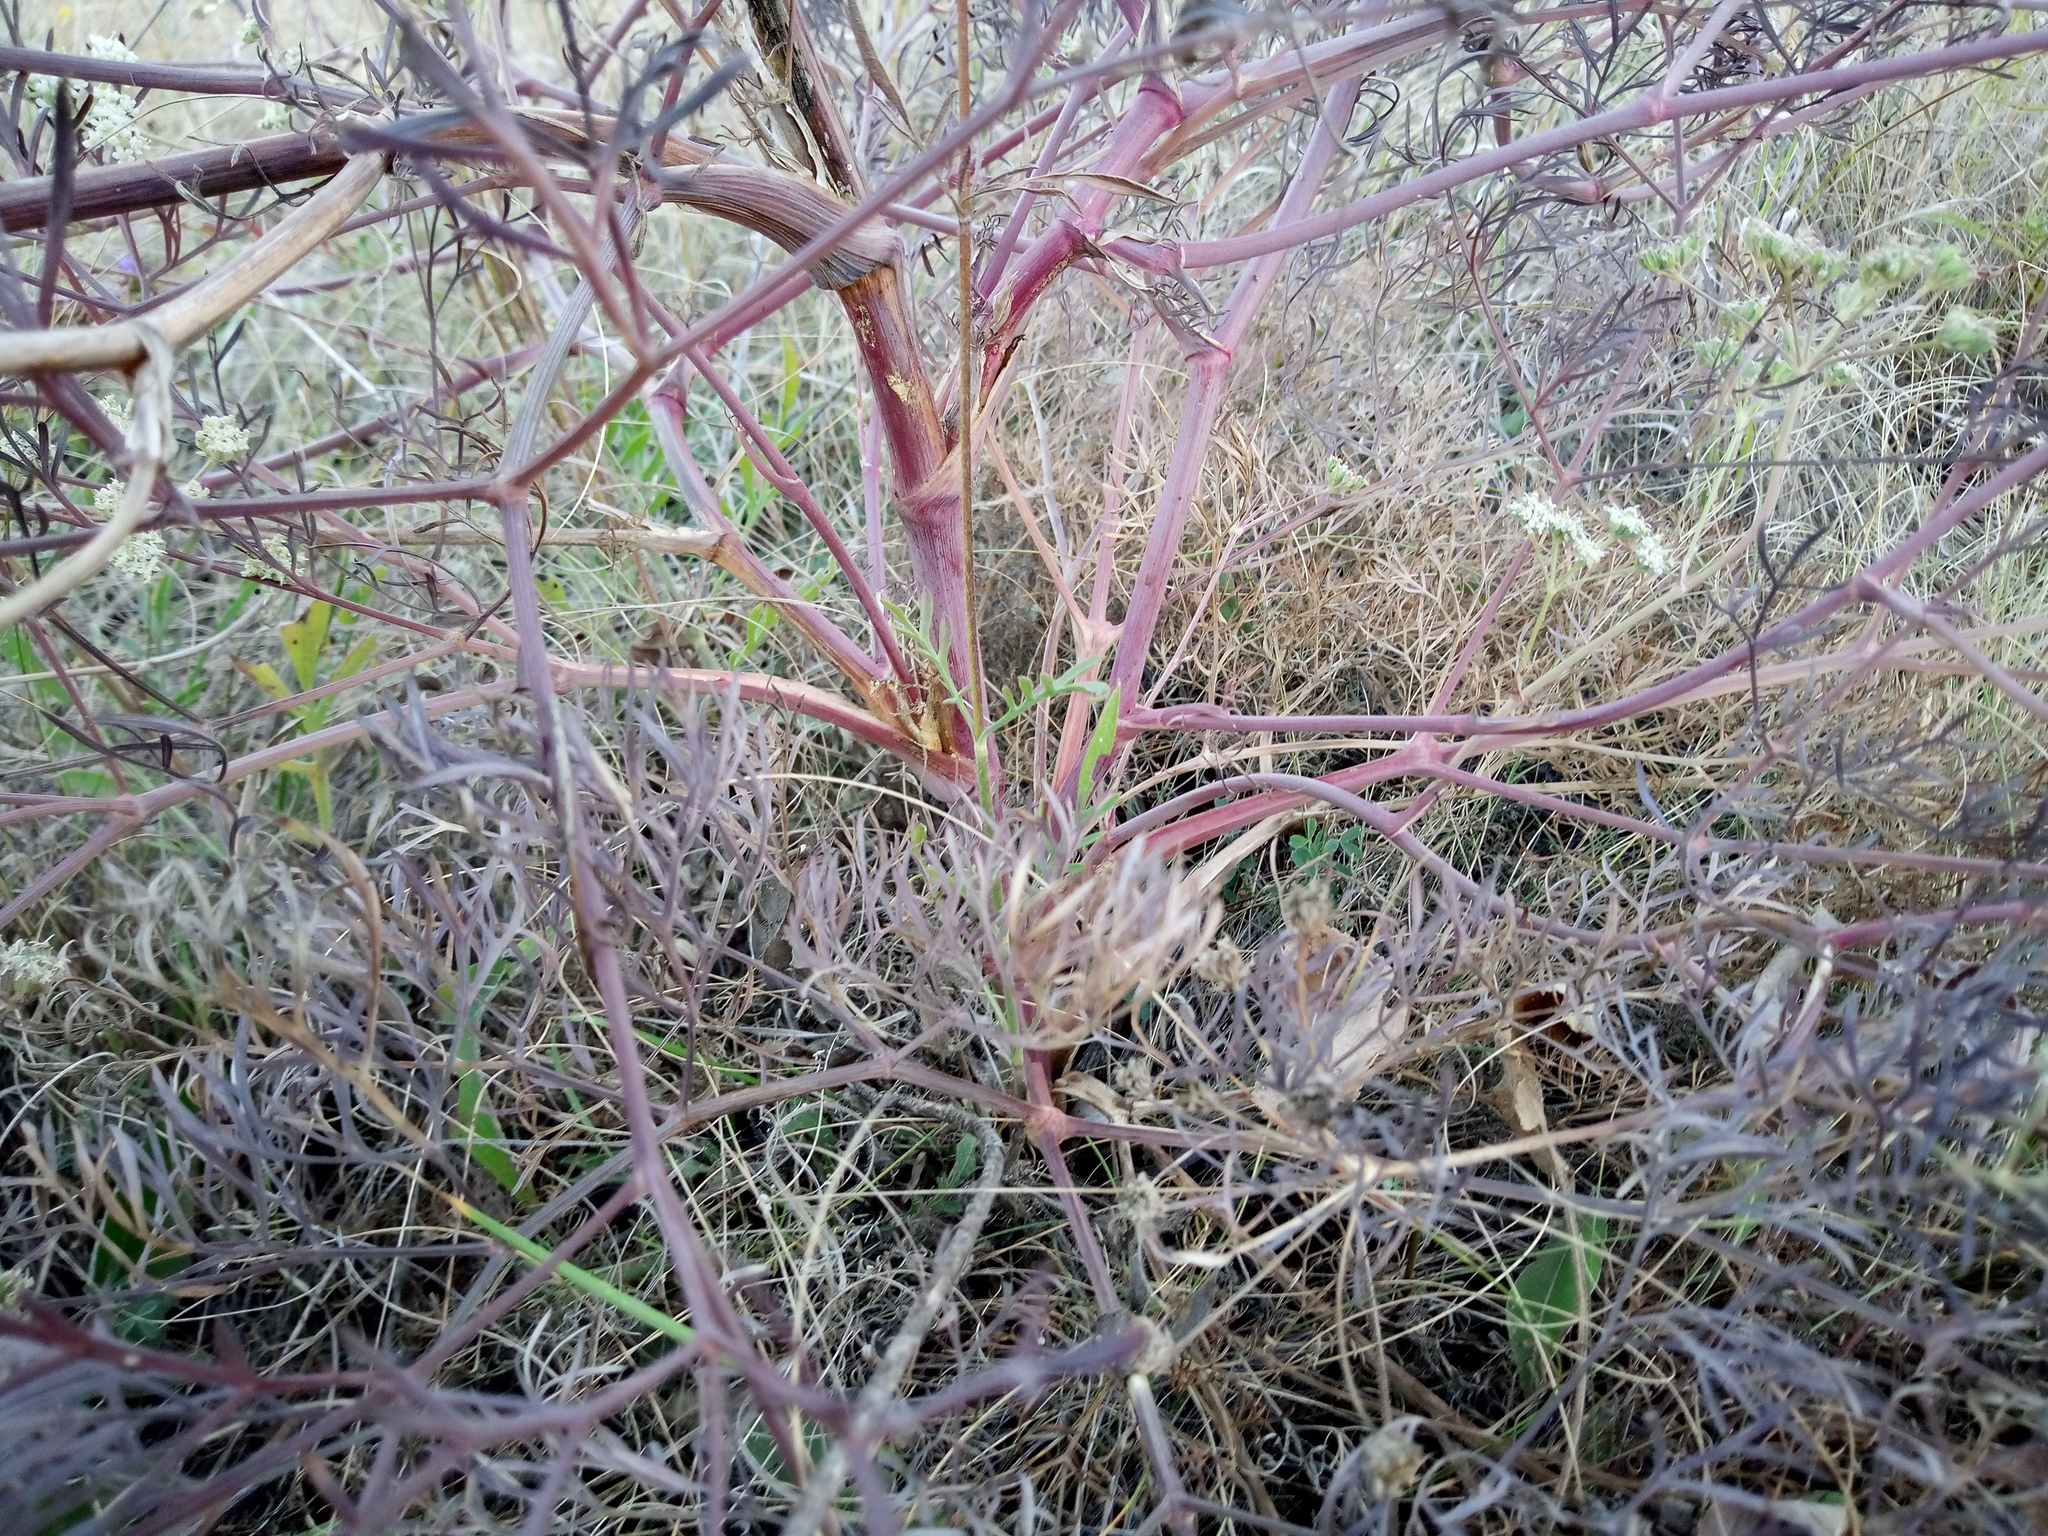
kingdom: Plantae
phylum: Tracheophyta
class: Magnoliopsida
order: Apiales
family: Apiaceae
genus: Seseli
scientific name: Seseli arenarium
